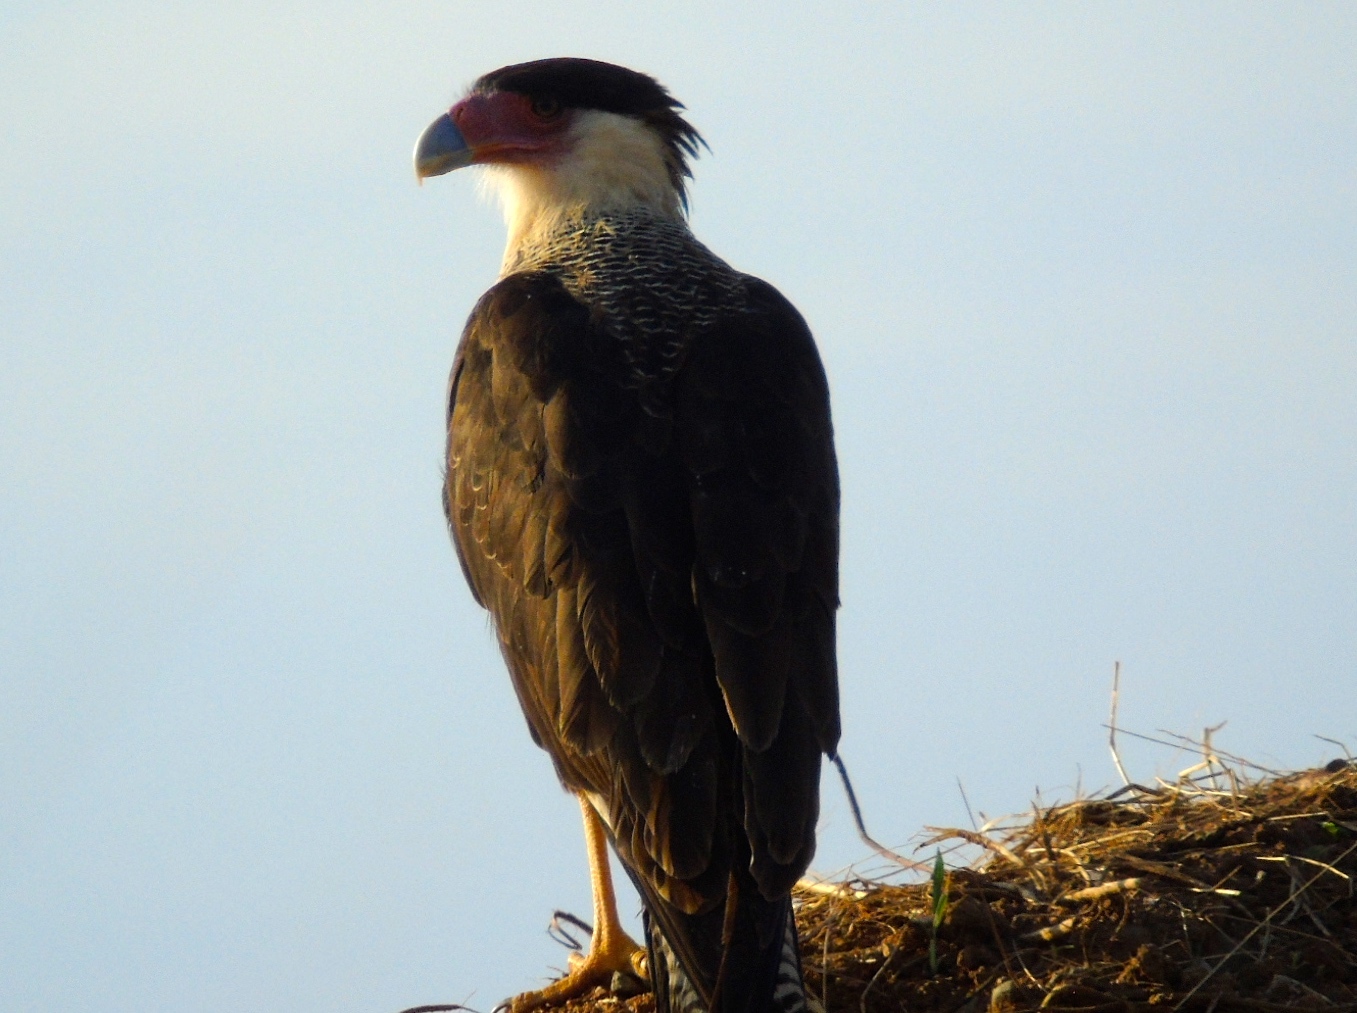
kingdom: Animalia
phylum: Chordata
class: Aves
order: Falconiformes
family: Falconidae
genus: Caracara
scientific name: Caracara plancus
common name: Southern caracara
